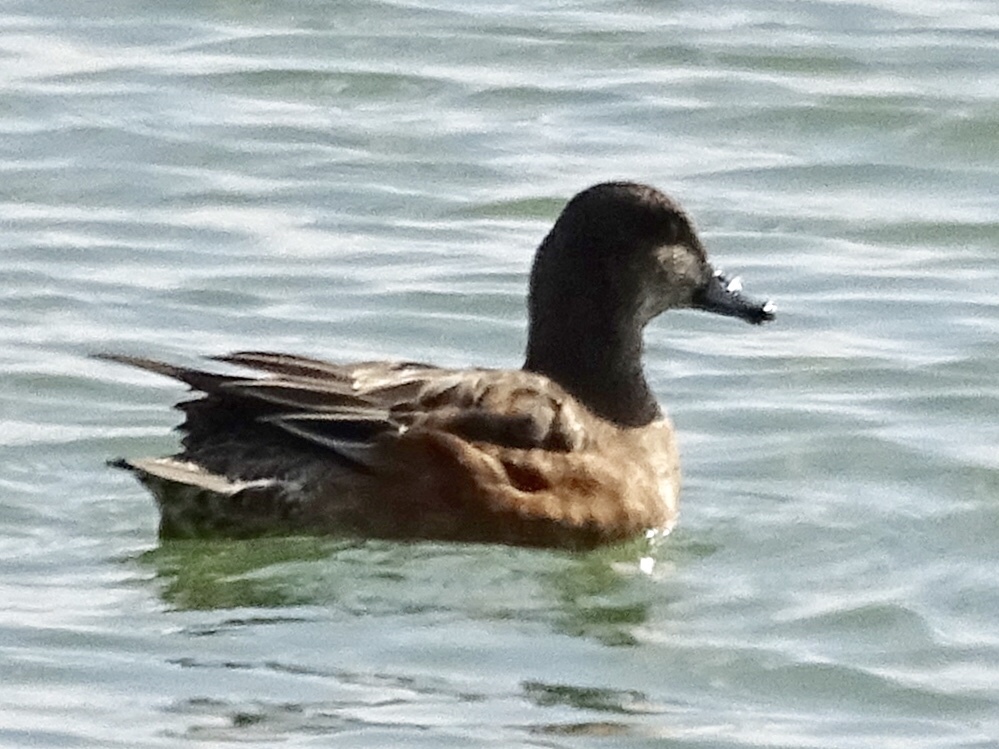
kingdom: Animalia
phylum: Chordata
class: Aves
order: Anseriformes
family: Anatidae
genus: Mareca
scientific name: Mareca americana
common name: American wigeon
